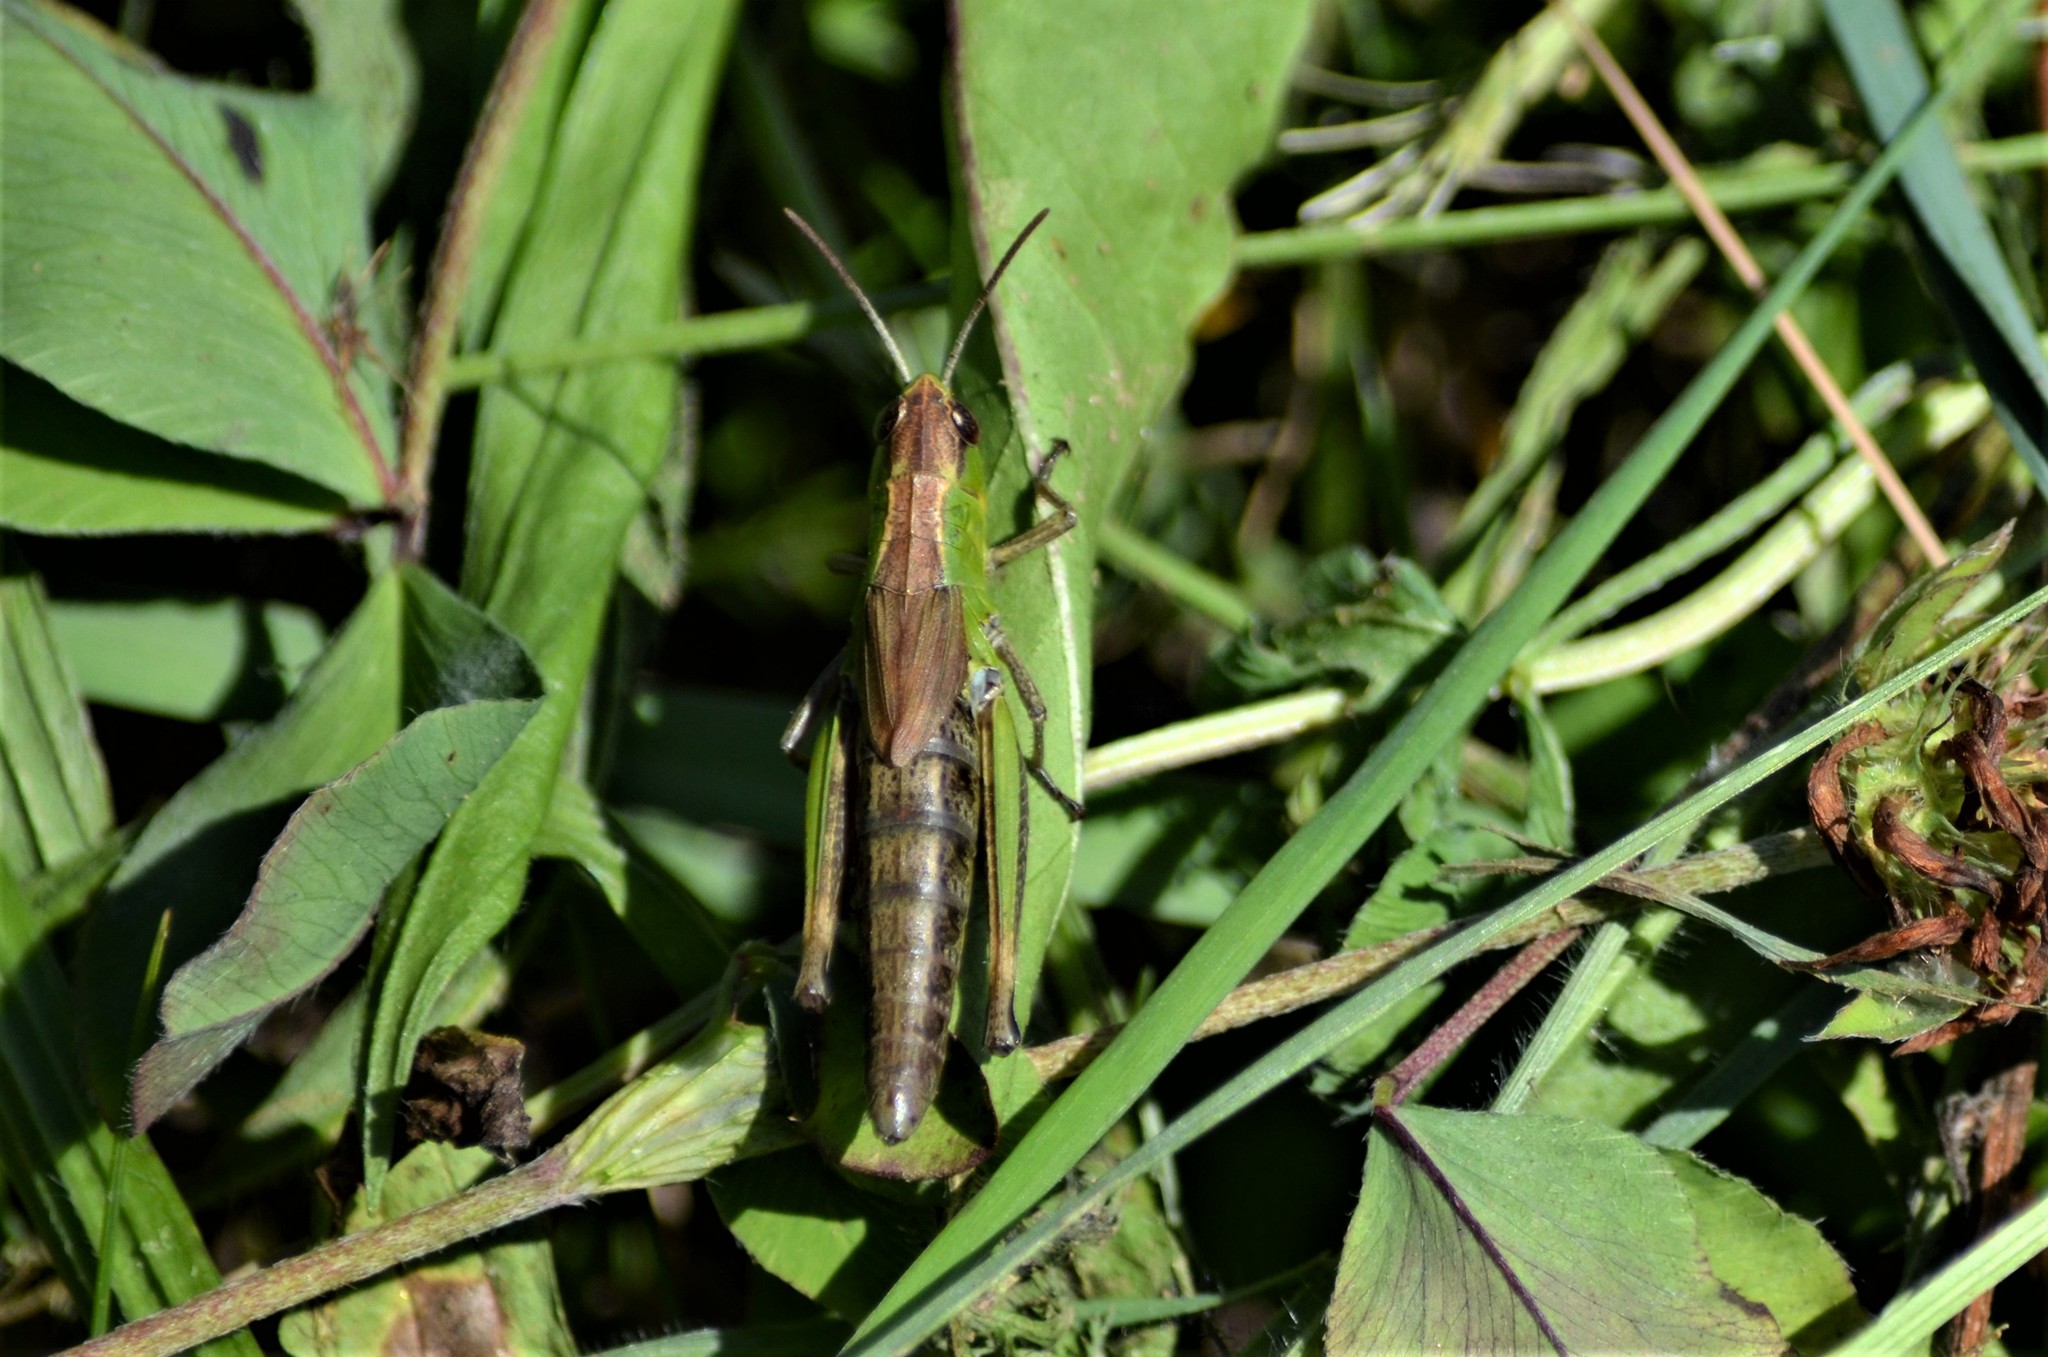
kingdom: Animalia
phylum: Arthropoda
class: Insecta
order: Orthoptera
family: Acrididae
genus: Pseudochorthippus
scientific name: Pseudochorthippus parallelus
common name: Meadow grasshopper
